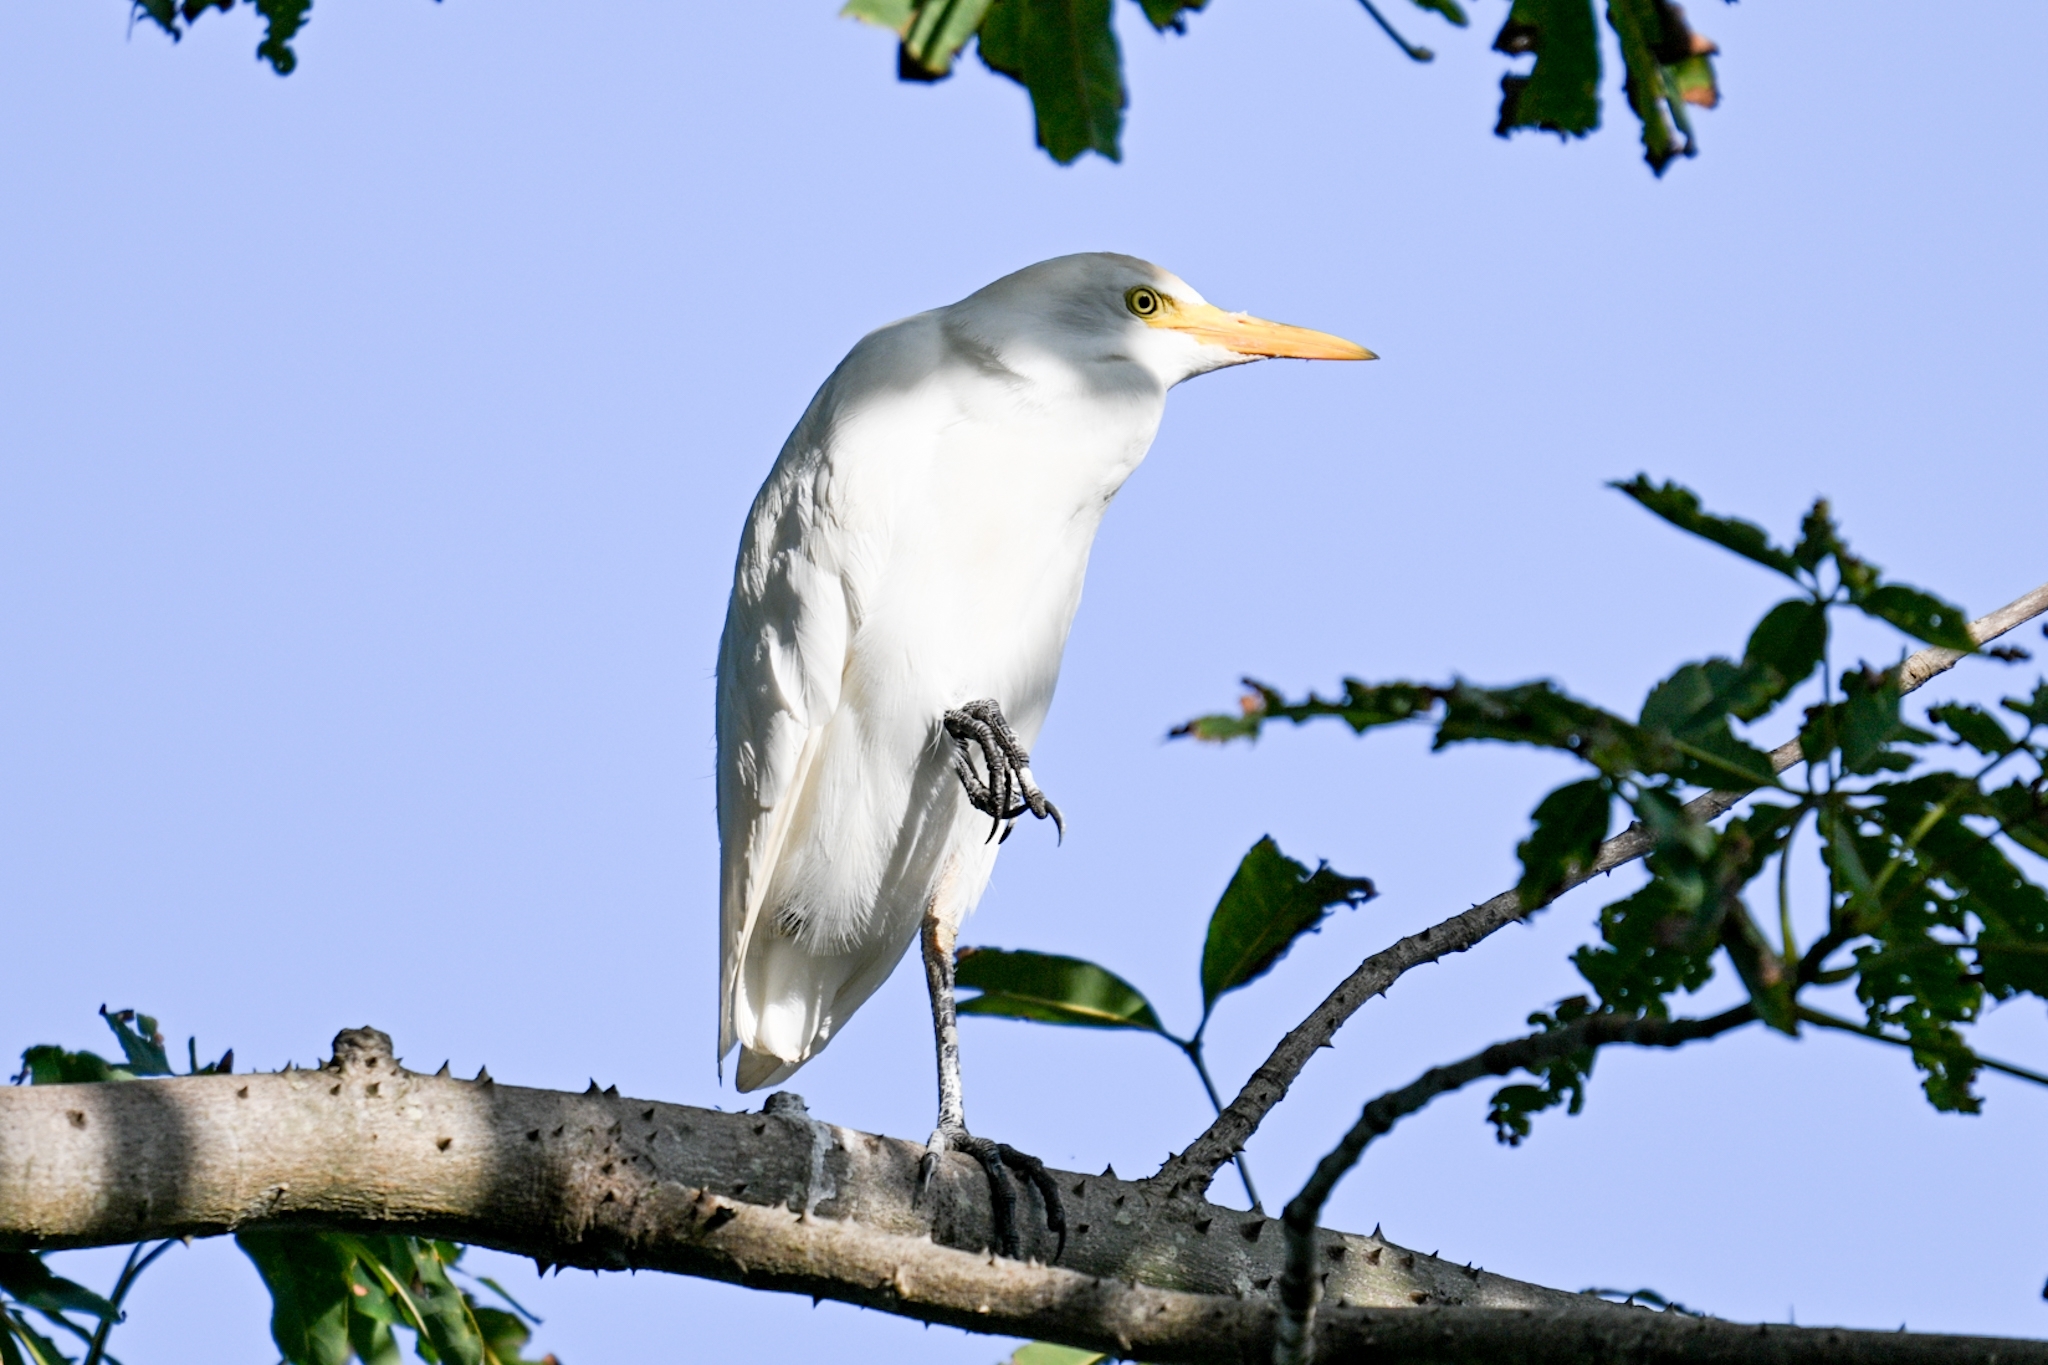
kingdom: Animalia
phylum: Chordata
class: Aves
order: Pelecaniformes
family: Ardeidae
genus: Bubulcus
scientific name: Bubulcus ibis
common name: Cattle egret
